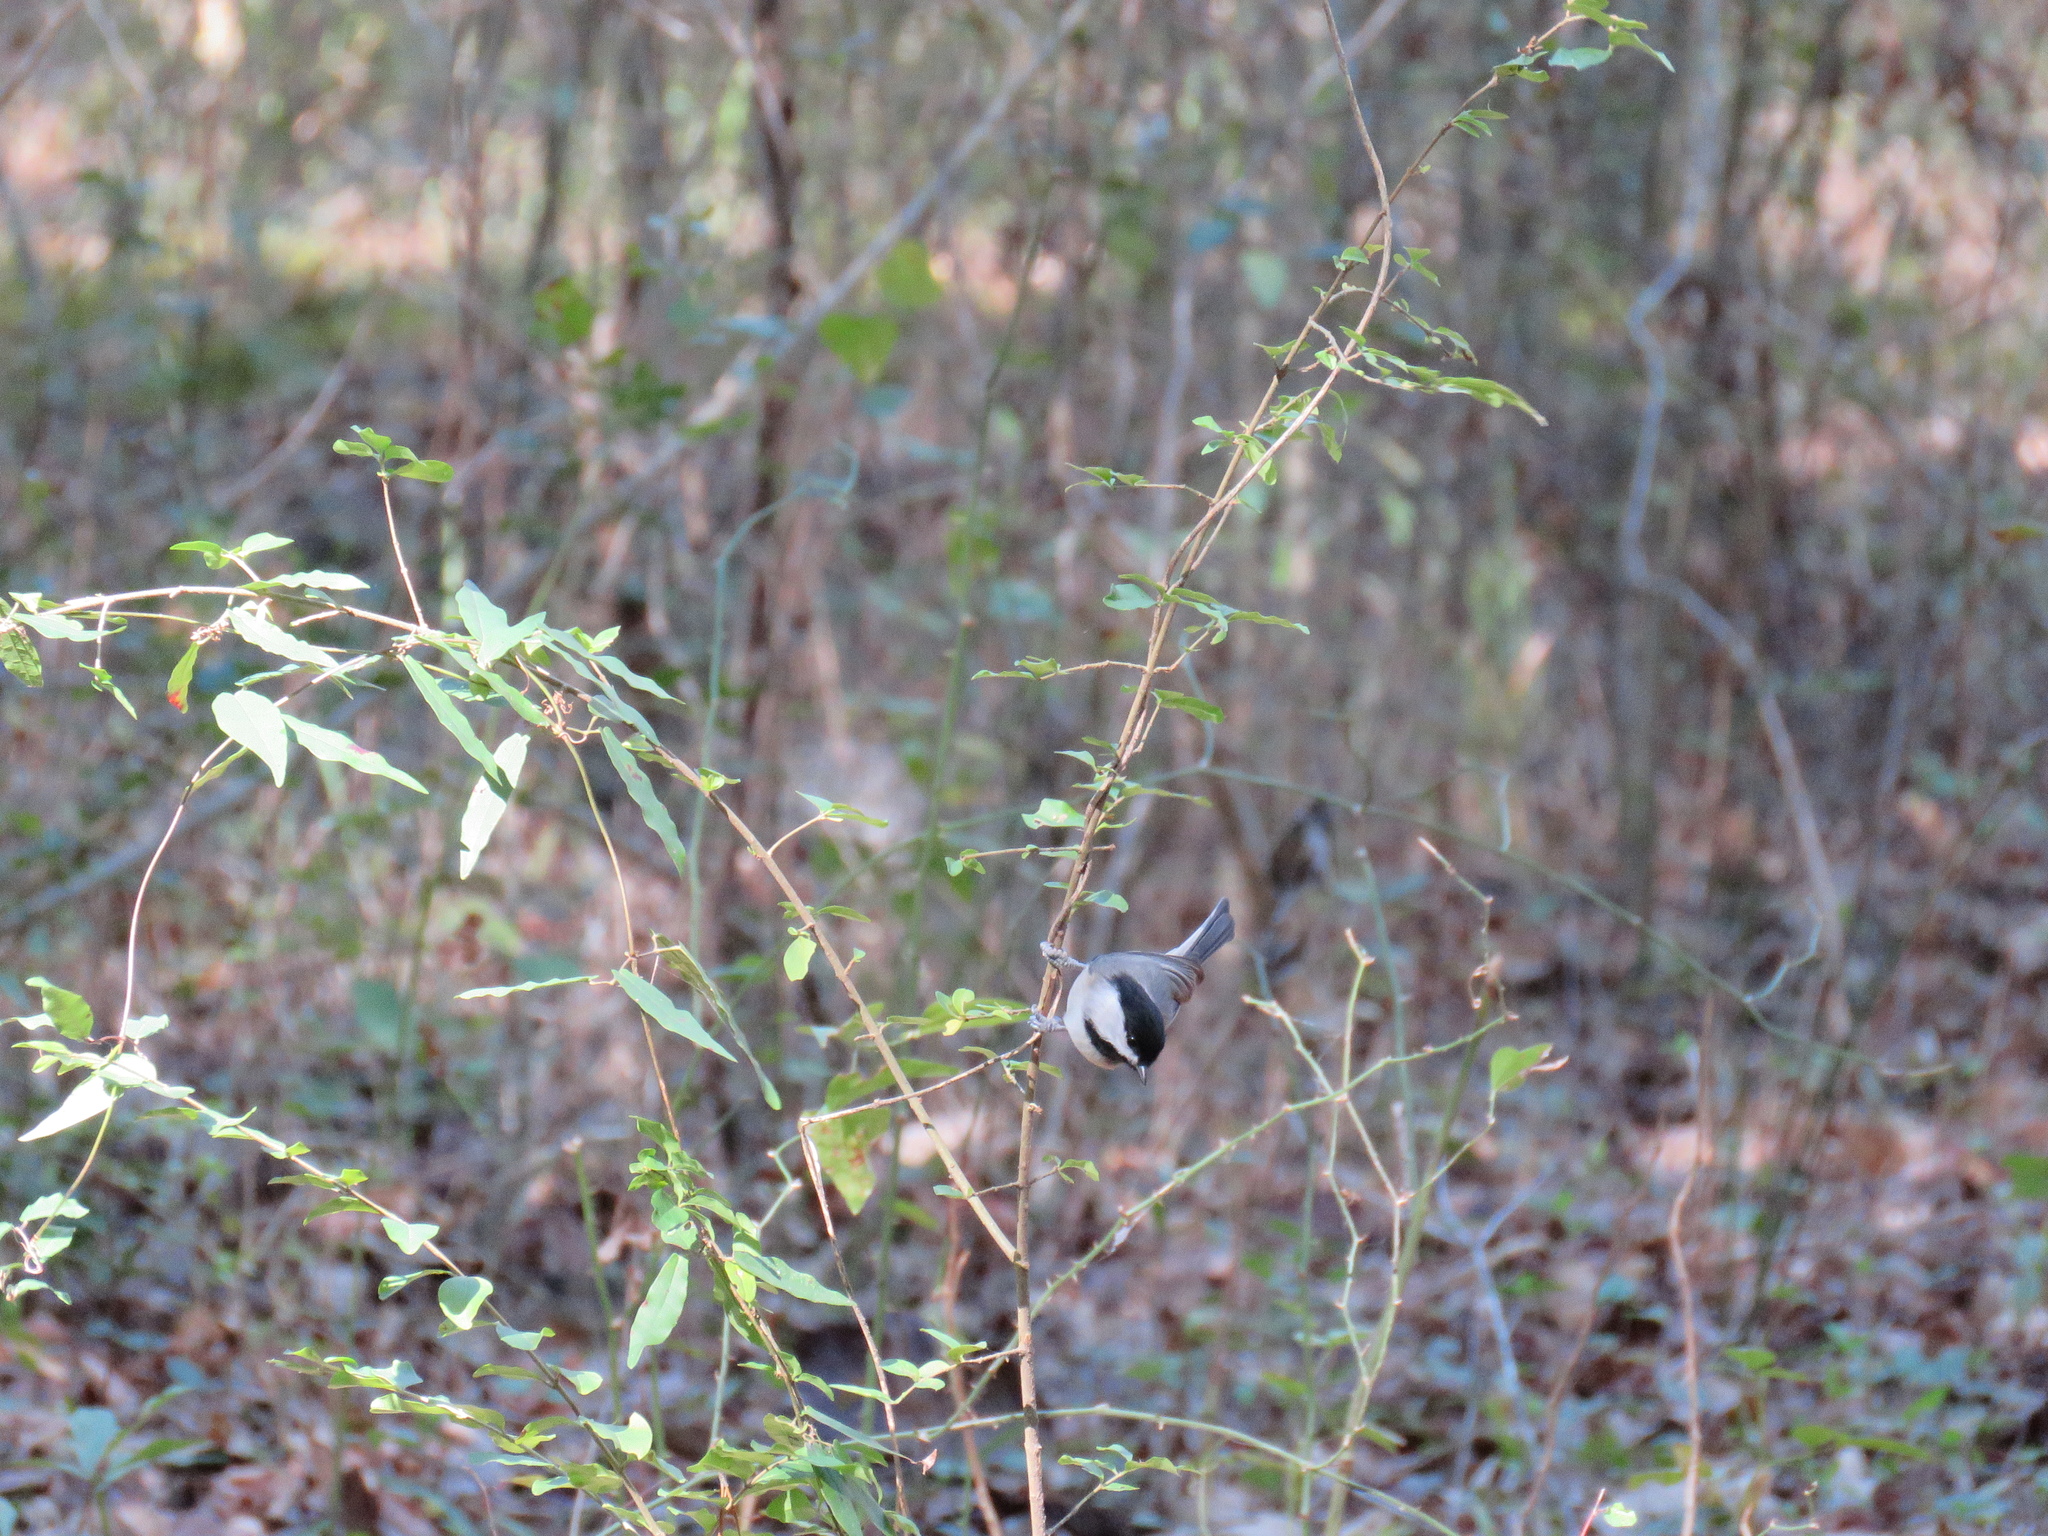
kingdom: Animalia
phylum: Chordata
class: Aves
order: Passeriformes
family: Paridae
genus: Poecile
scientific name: Poecile carolinensis
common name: Carolina chickadee
